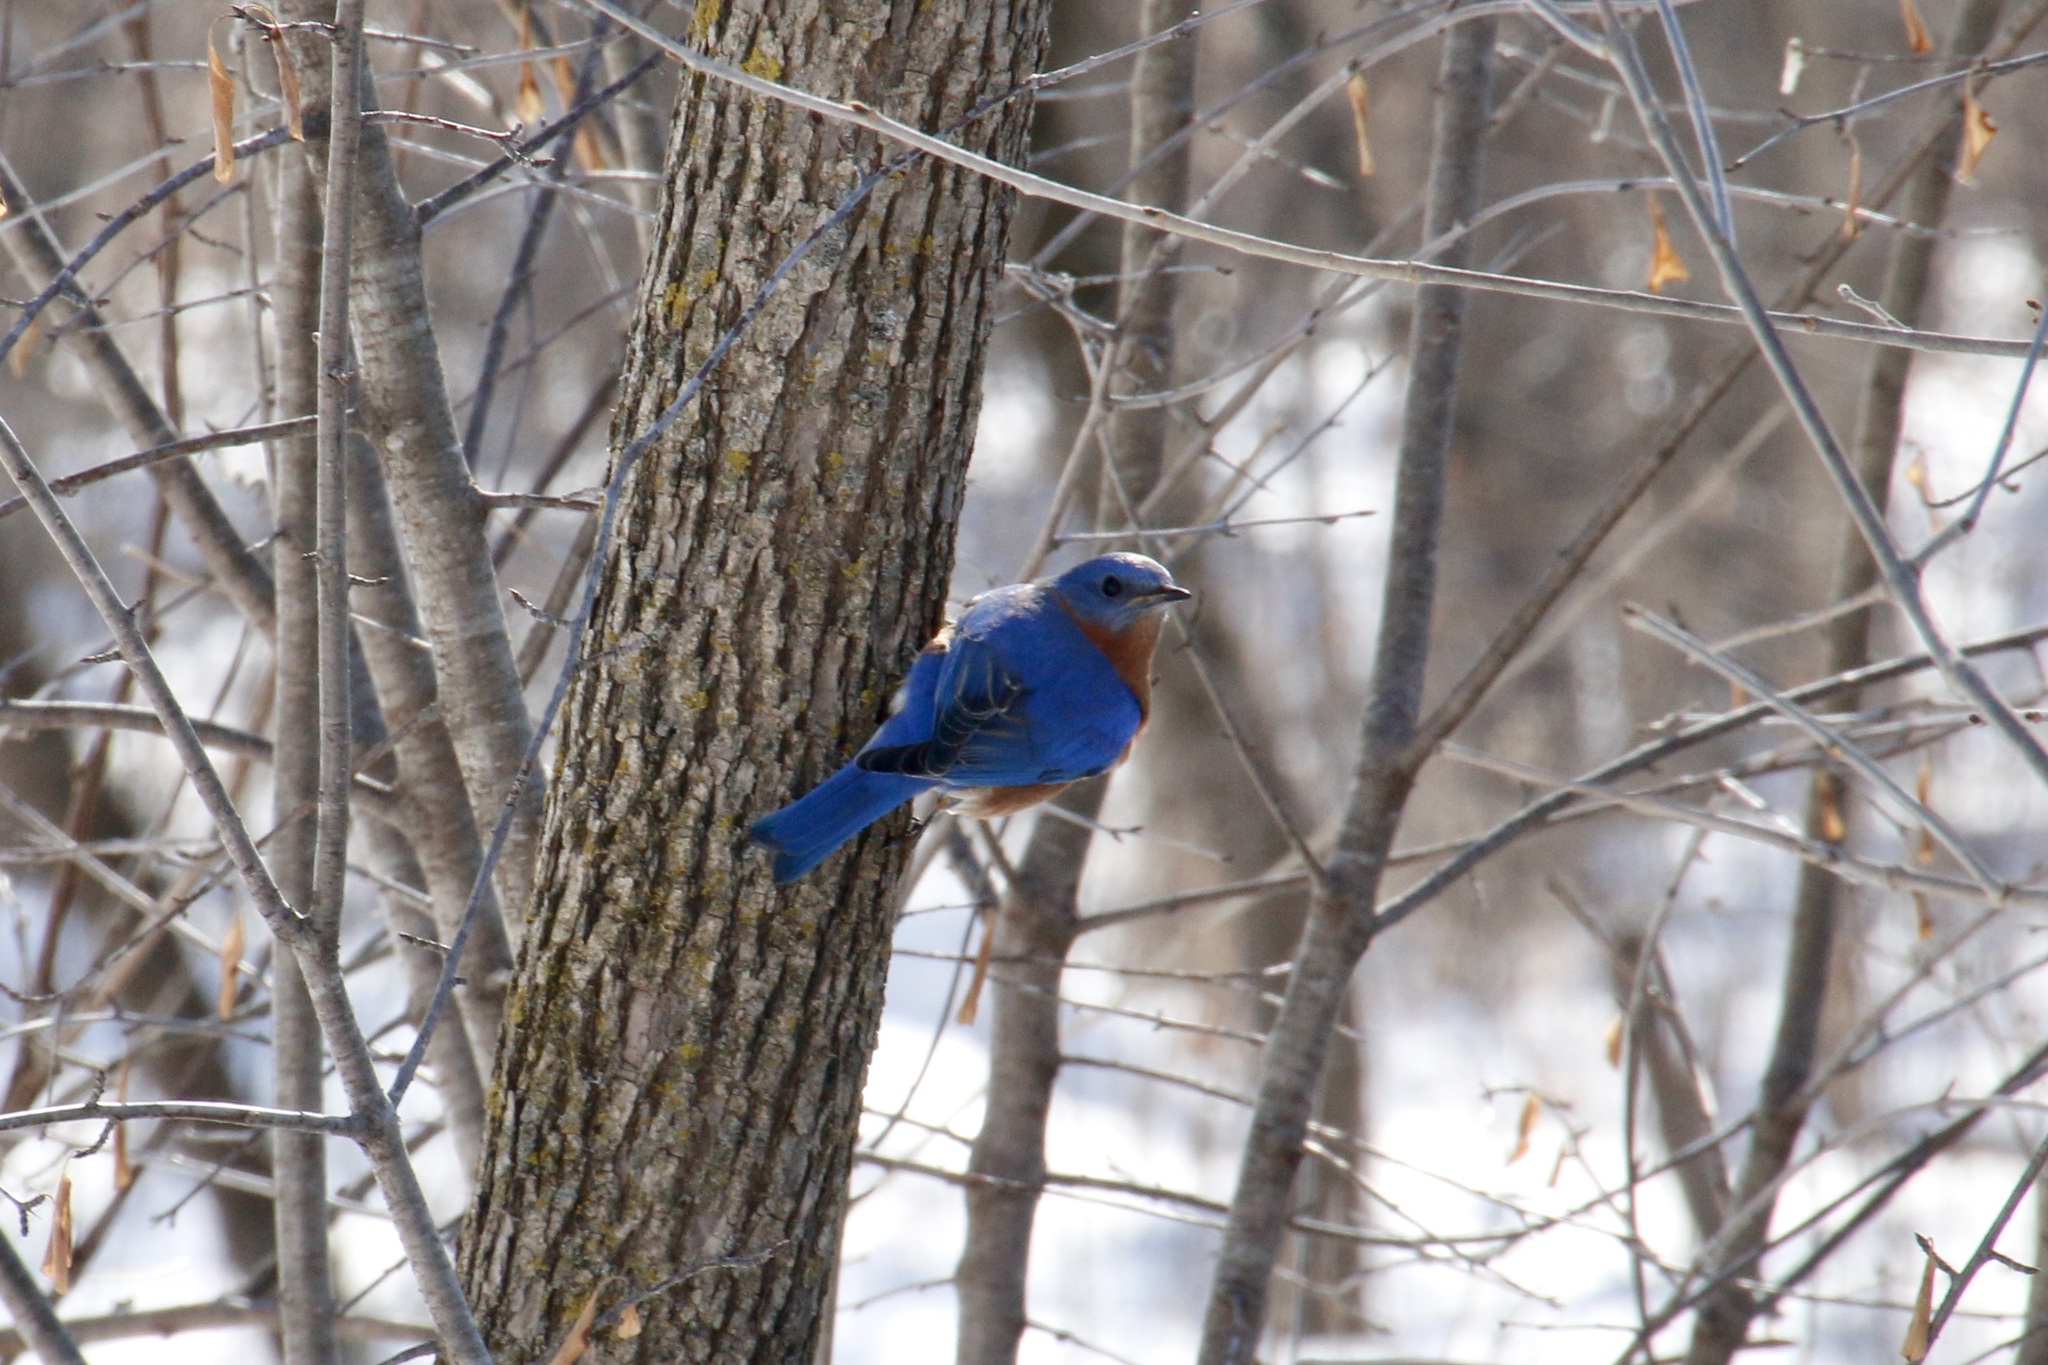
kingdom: Animalia
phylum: Chordata
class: Aves
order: Passeriformes
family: Turdidae
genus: Sialia
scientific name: Sialia sialis
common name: Eastern bluebird
